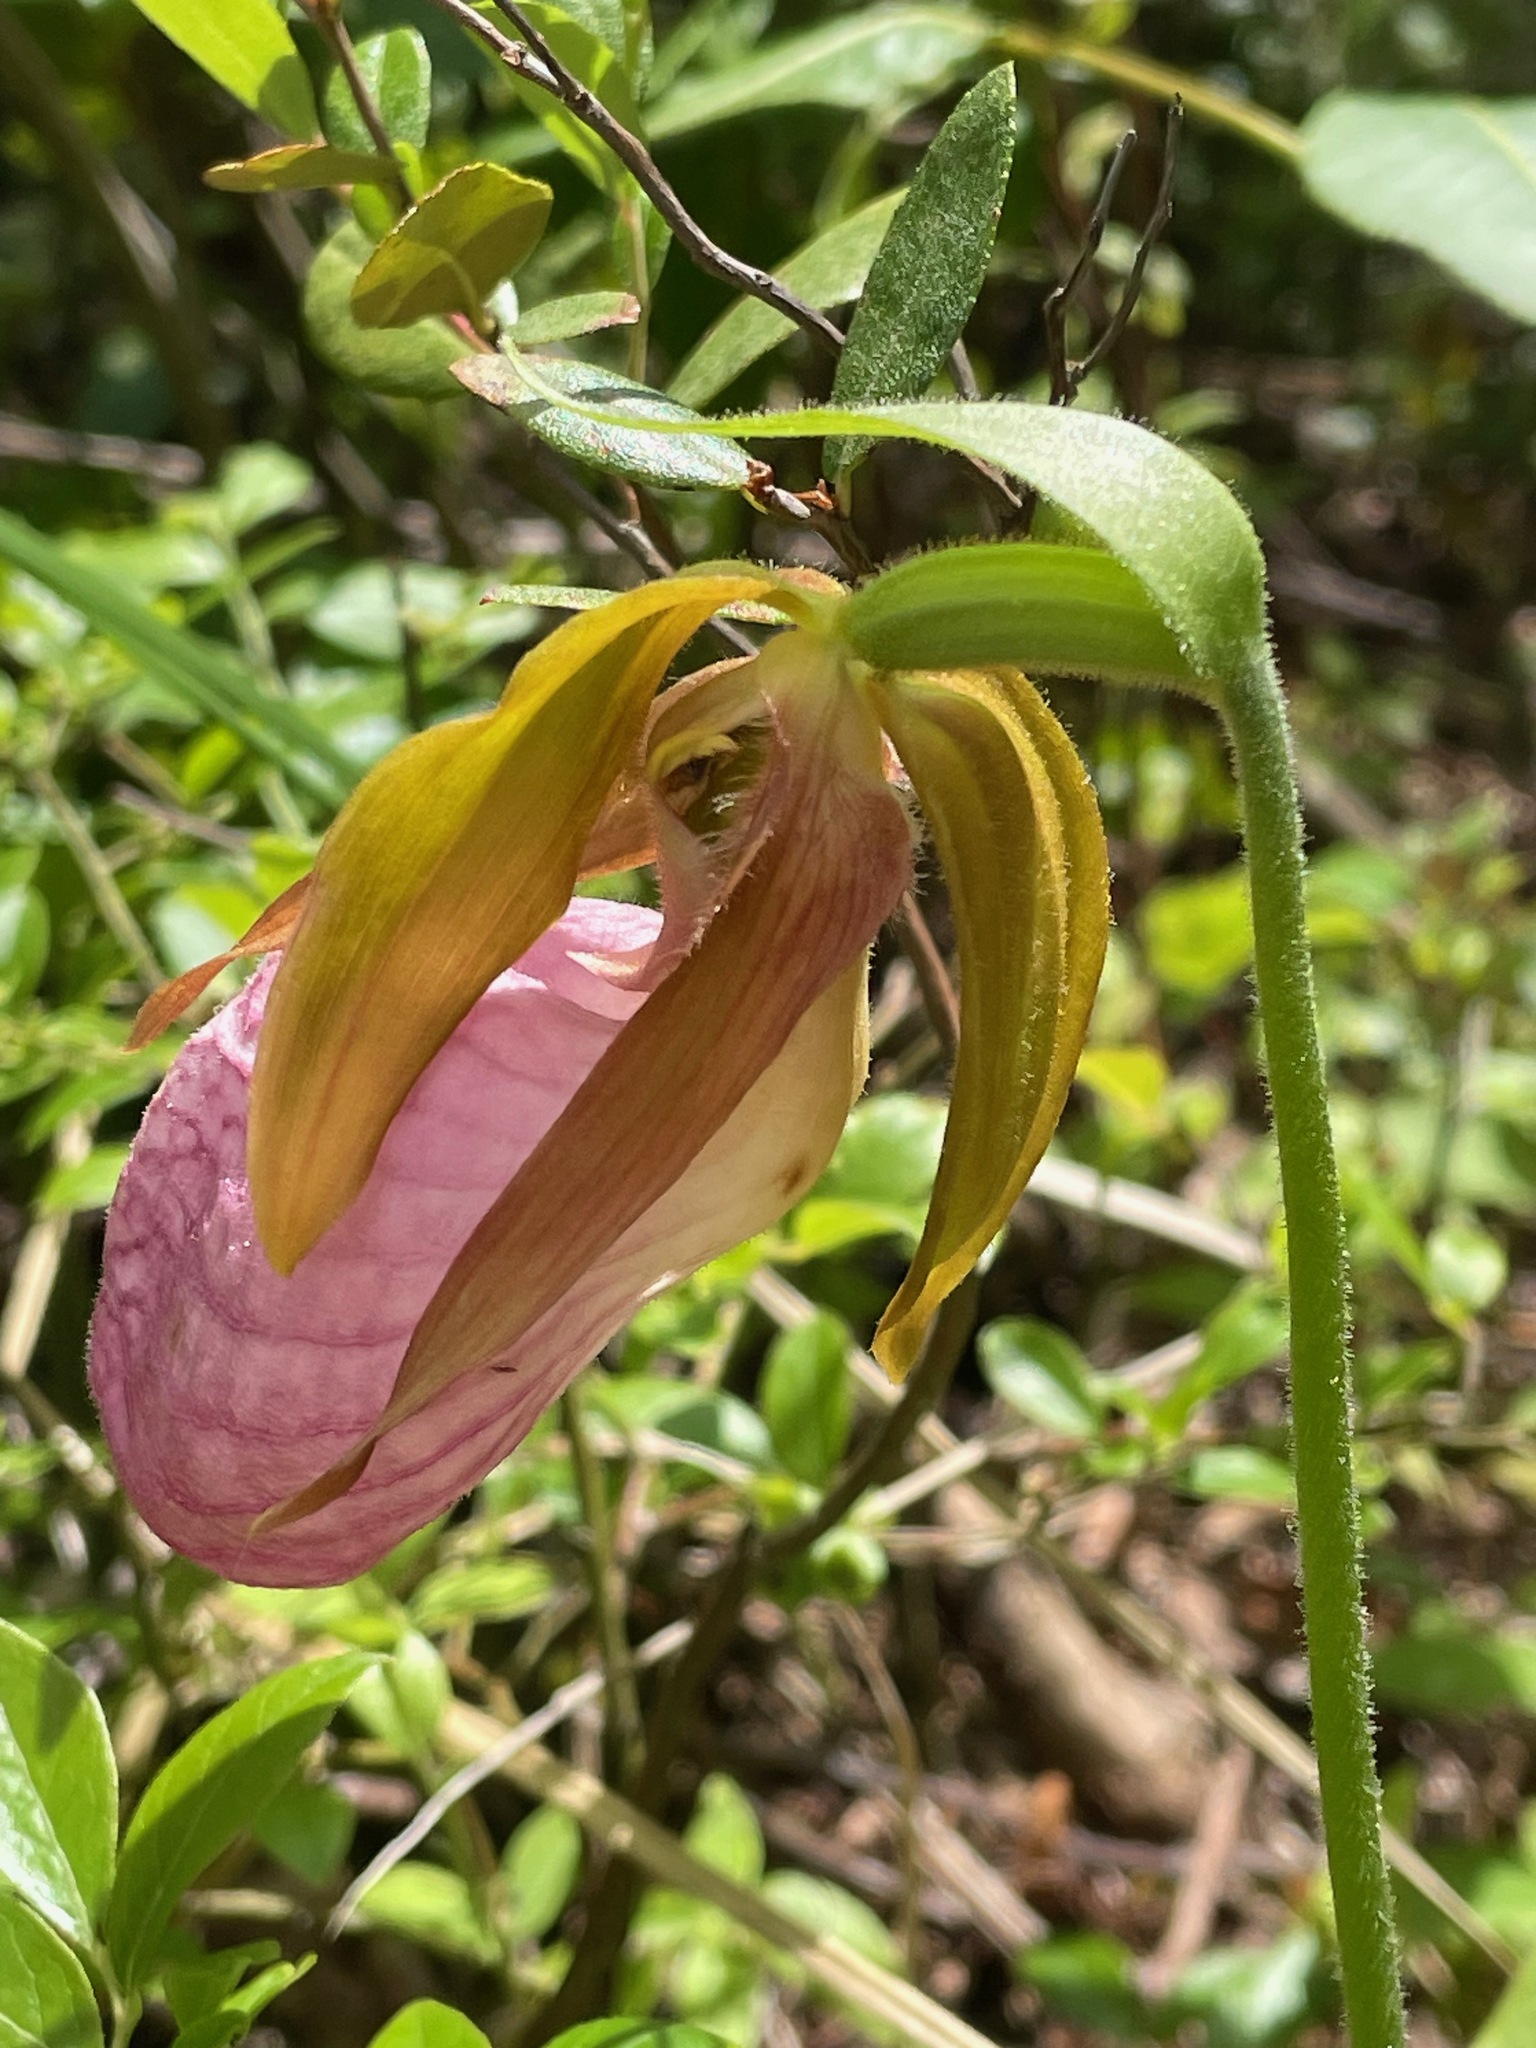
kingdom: Plantae
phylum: Tracheophyta
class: Liliopsida
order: Asparagales
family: Orchidaceae
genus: Cypripedium
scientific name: Cypripedium acaule
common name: Pink lady's-slipper
